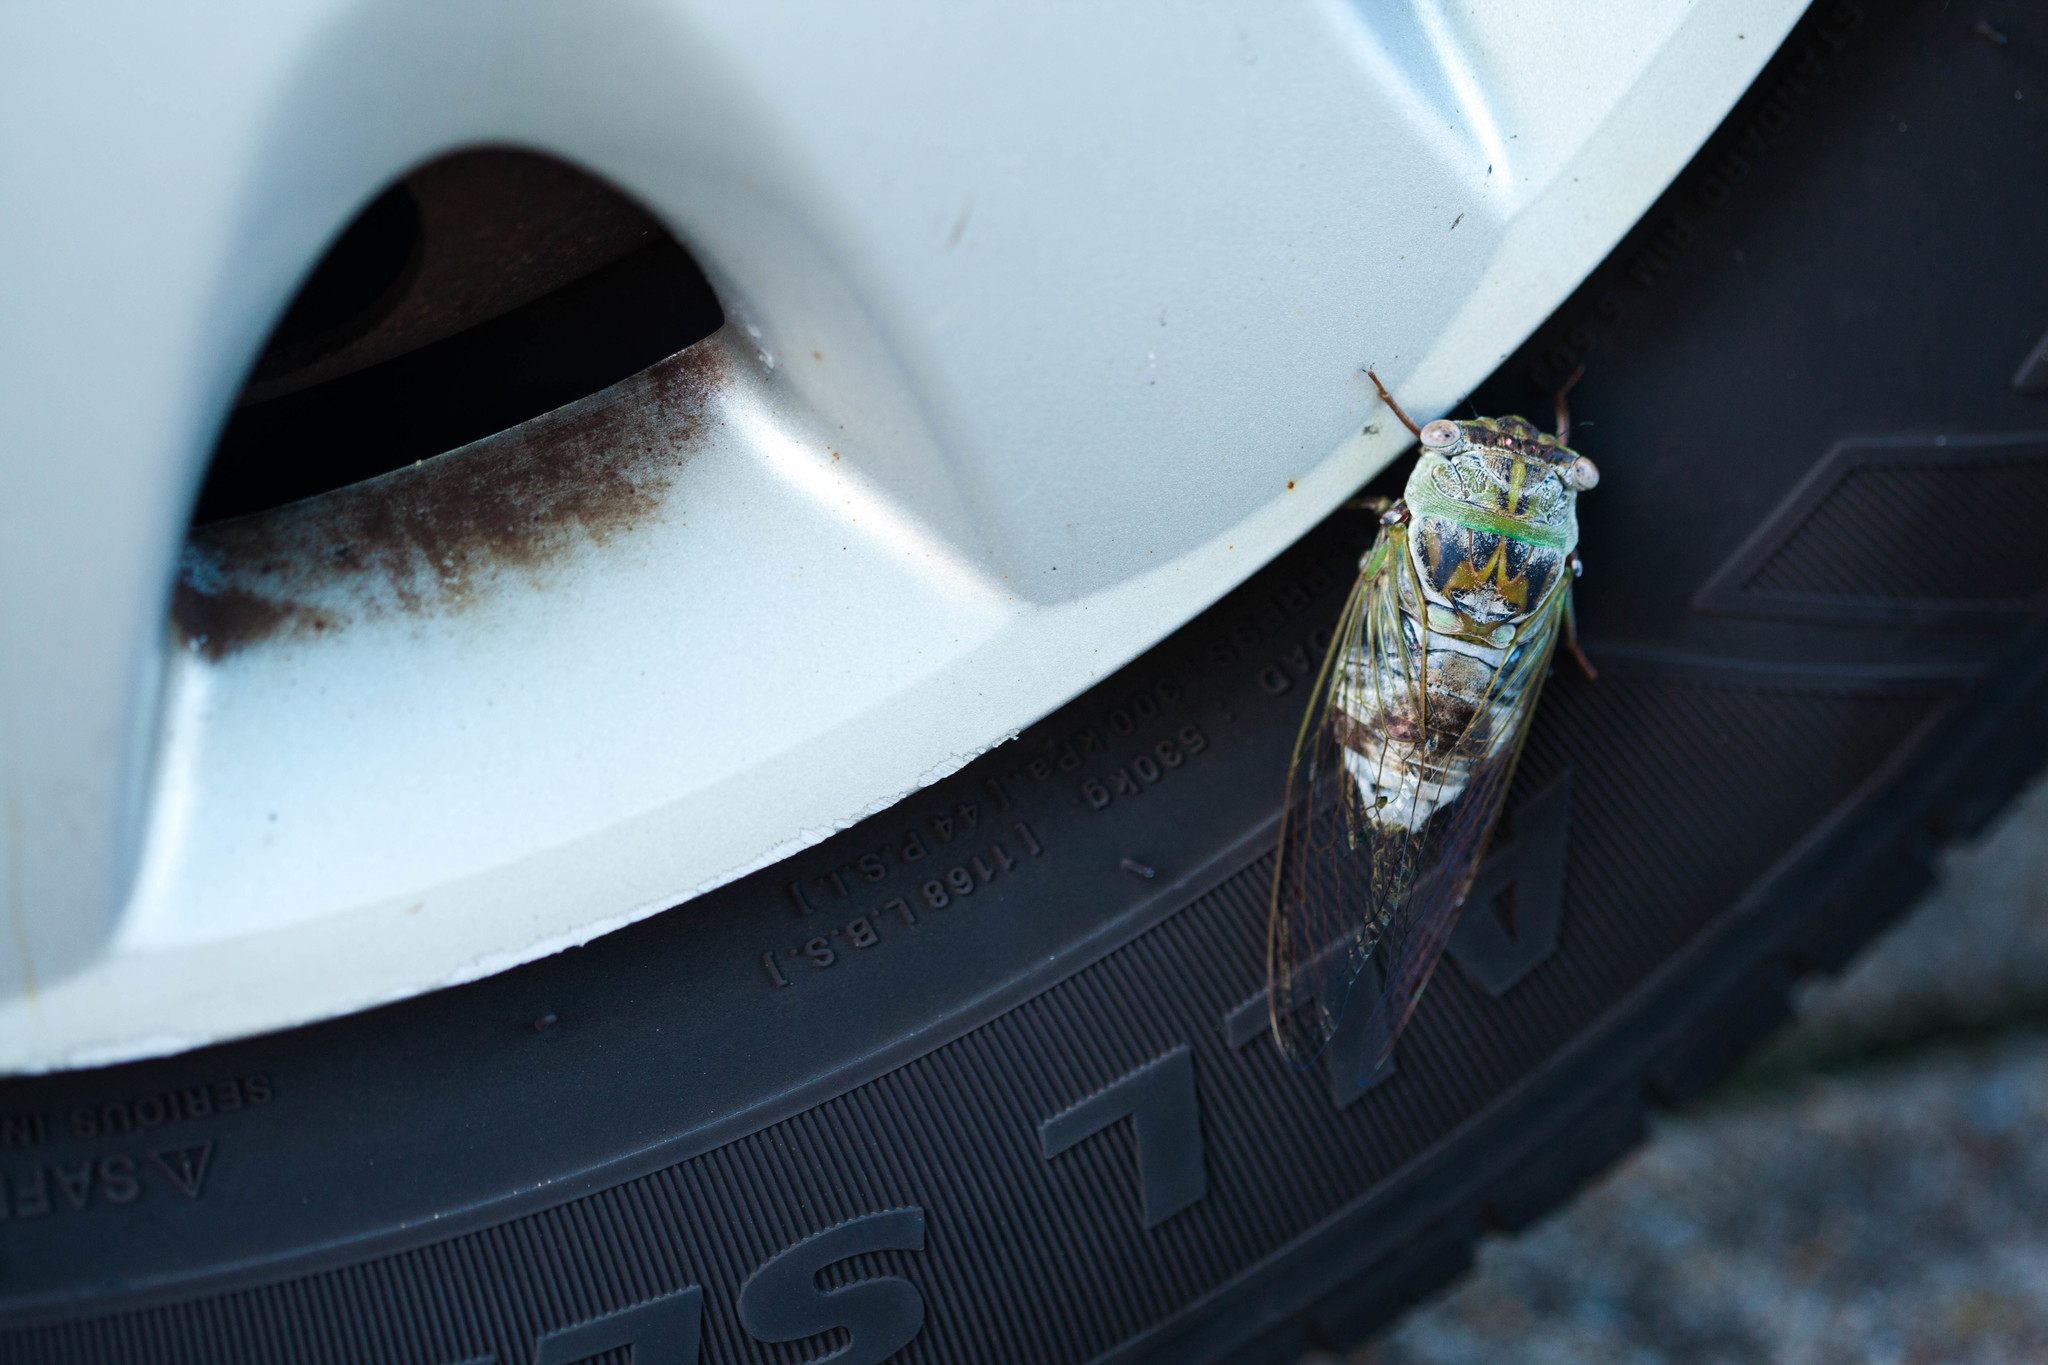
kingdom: Animalia
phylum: Arthropoda
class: Insecta
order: Hemiptera
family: Cicadidae
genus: Diceroprocta
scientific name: Diceroprocta grossa
